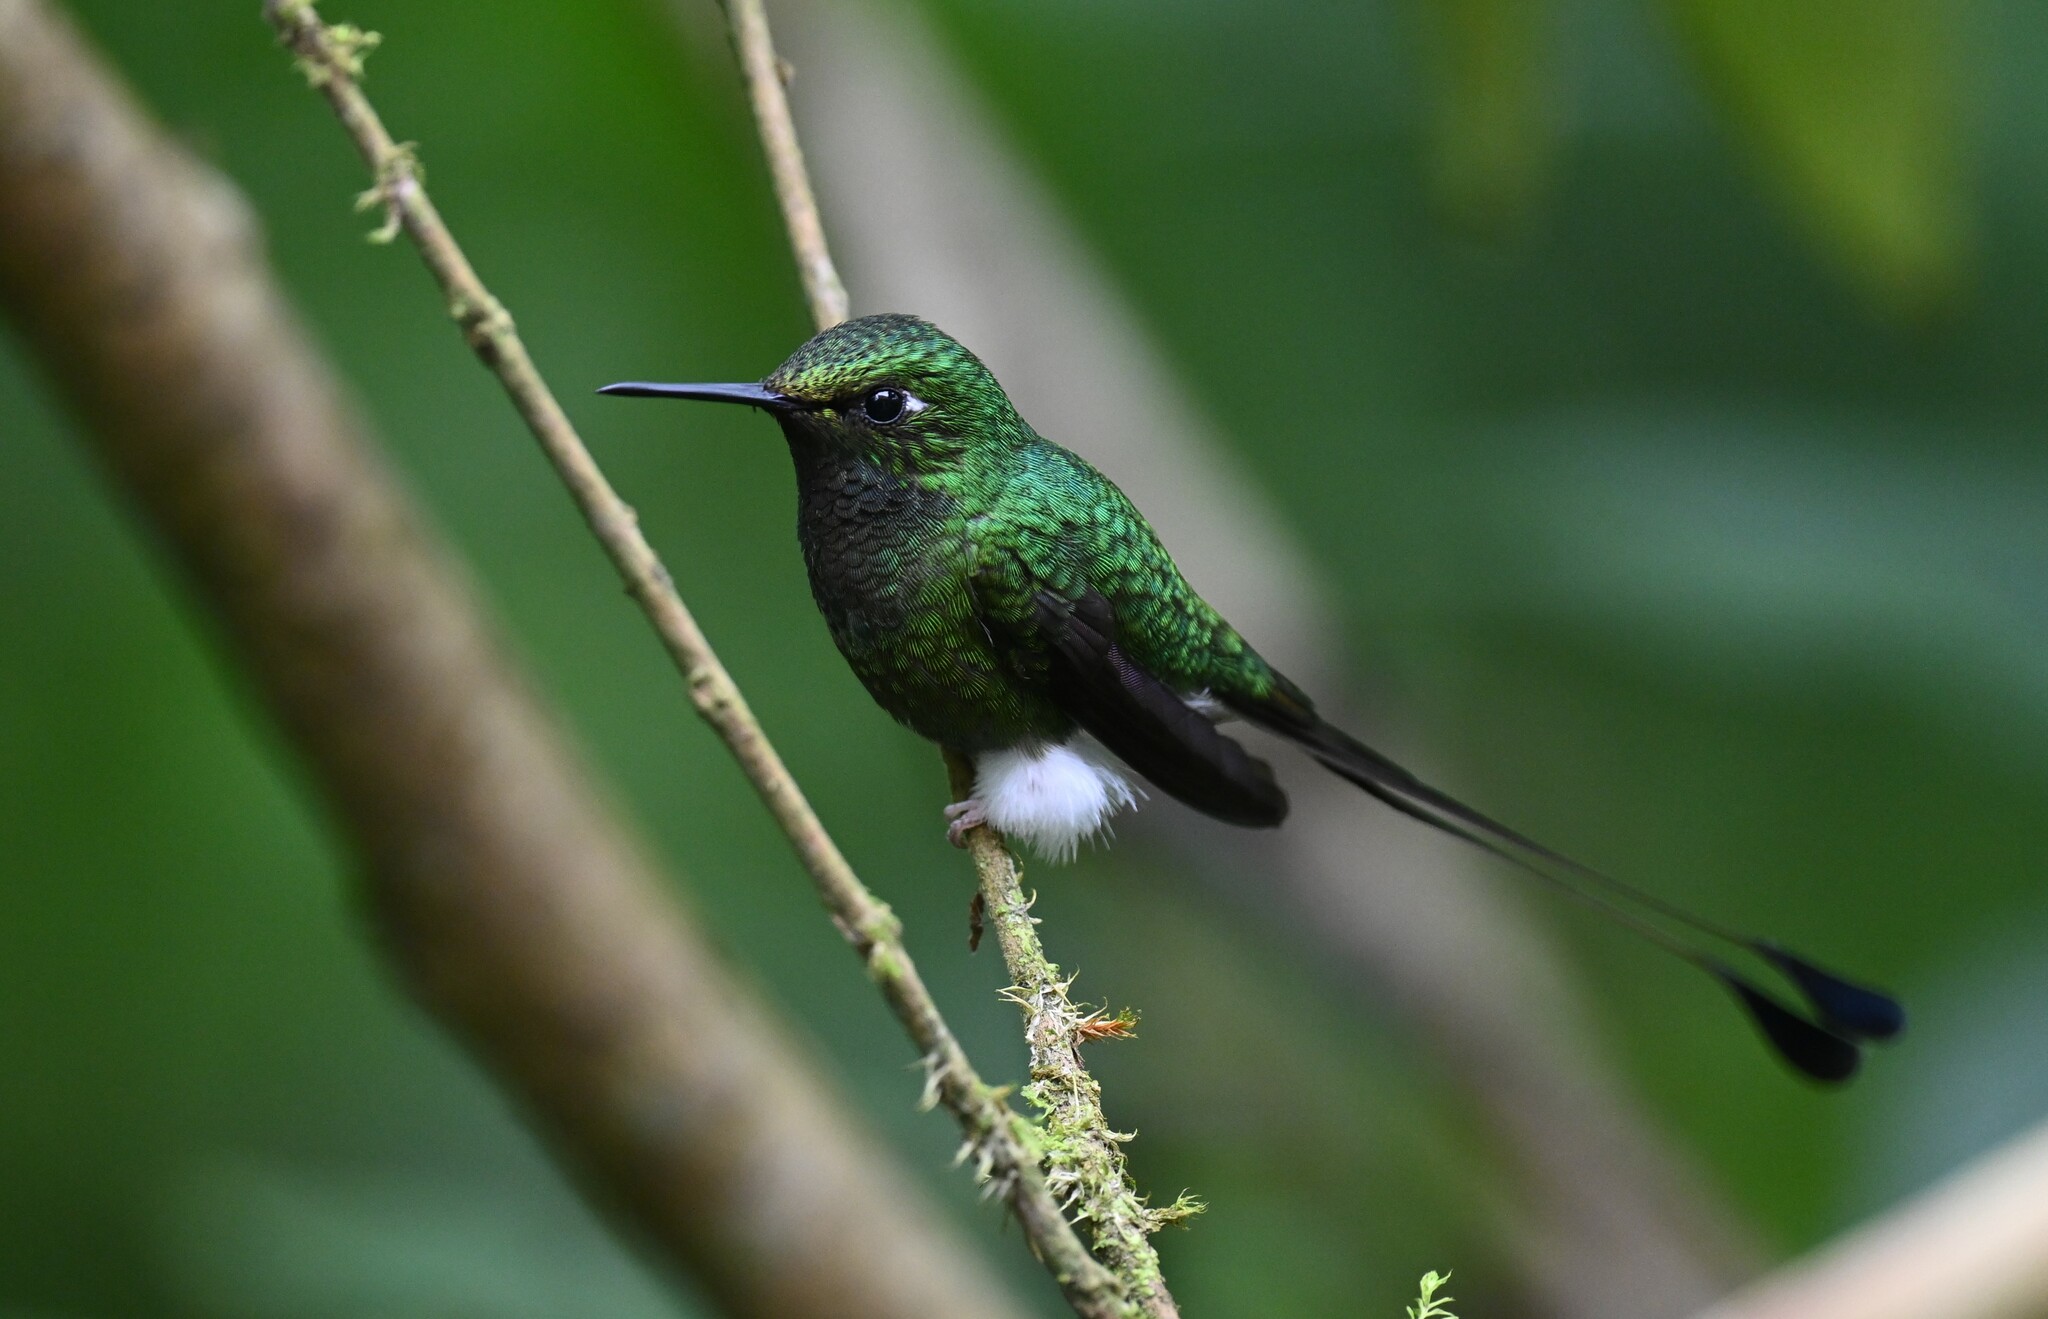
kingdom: Animalia
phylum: Chordata
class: Aves
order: Apodiformes
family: Trochilidae
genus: Ocreatus
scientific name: Ocreatus underwoodii
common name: Booted racket-tail
